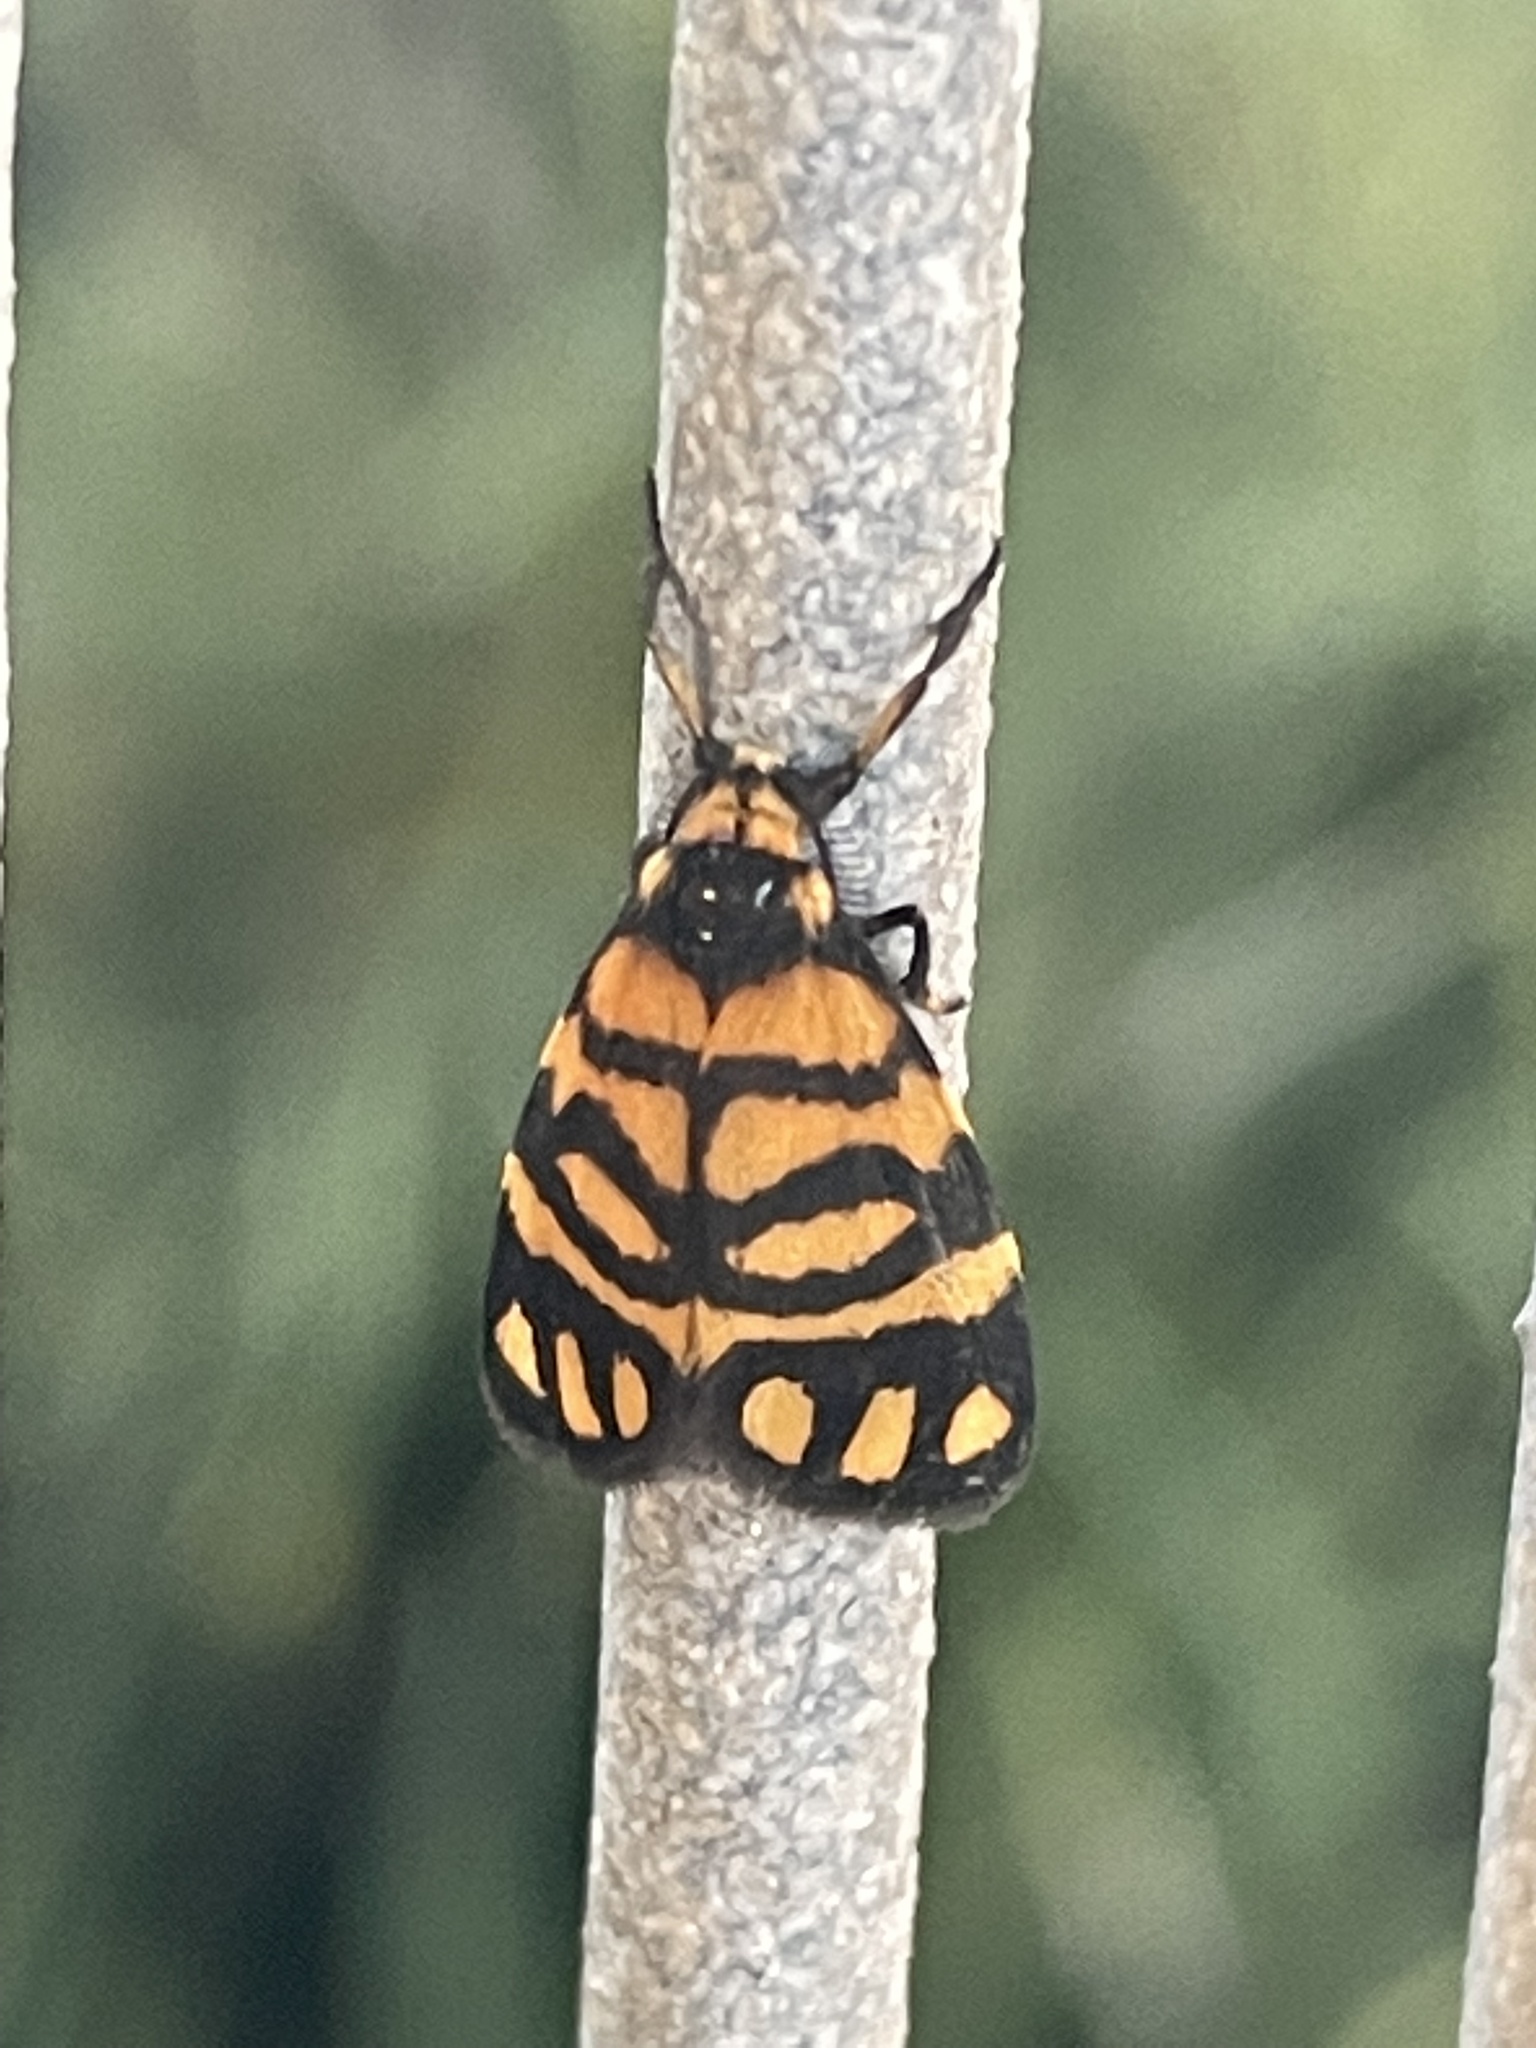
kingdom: Animalia
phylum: Arthropoda
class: Insecta
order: Lepidoptera
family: Erebidae
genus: Asura
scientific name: Asura lydia
